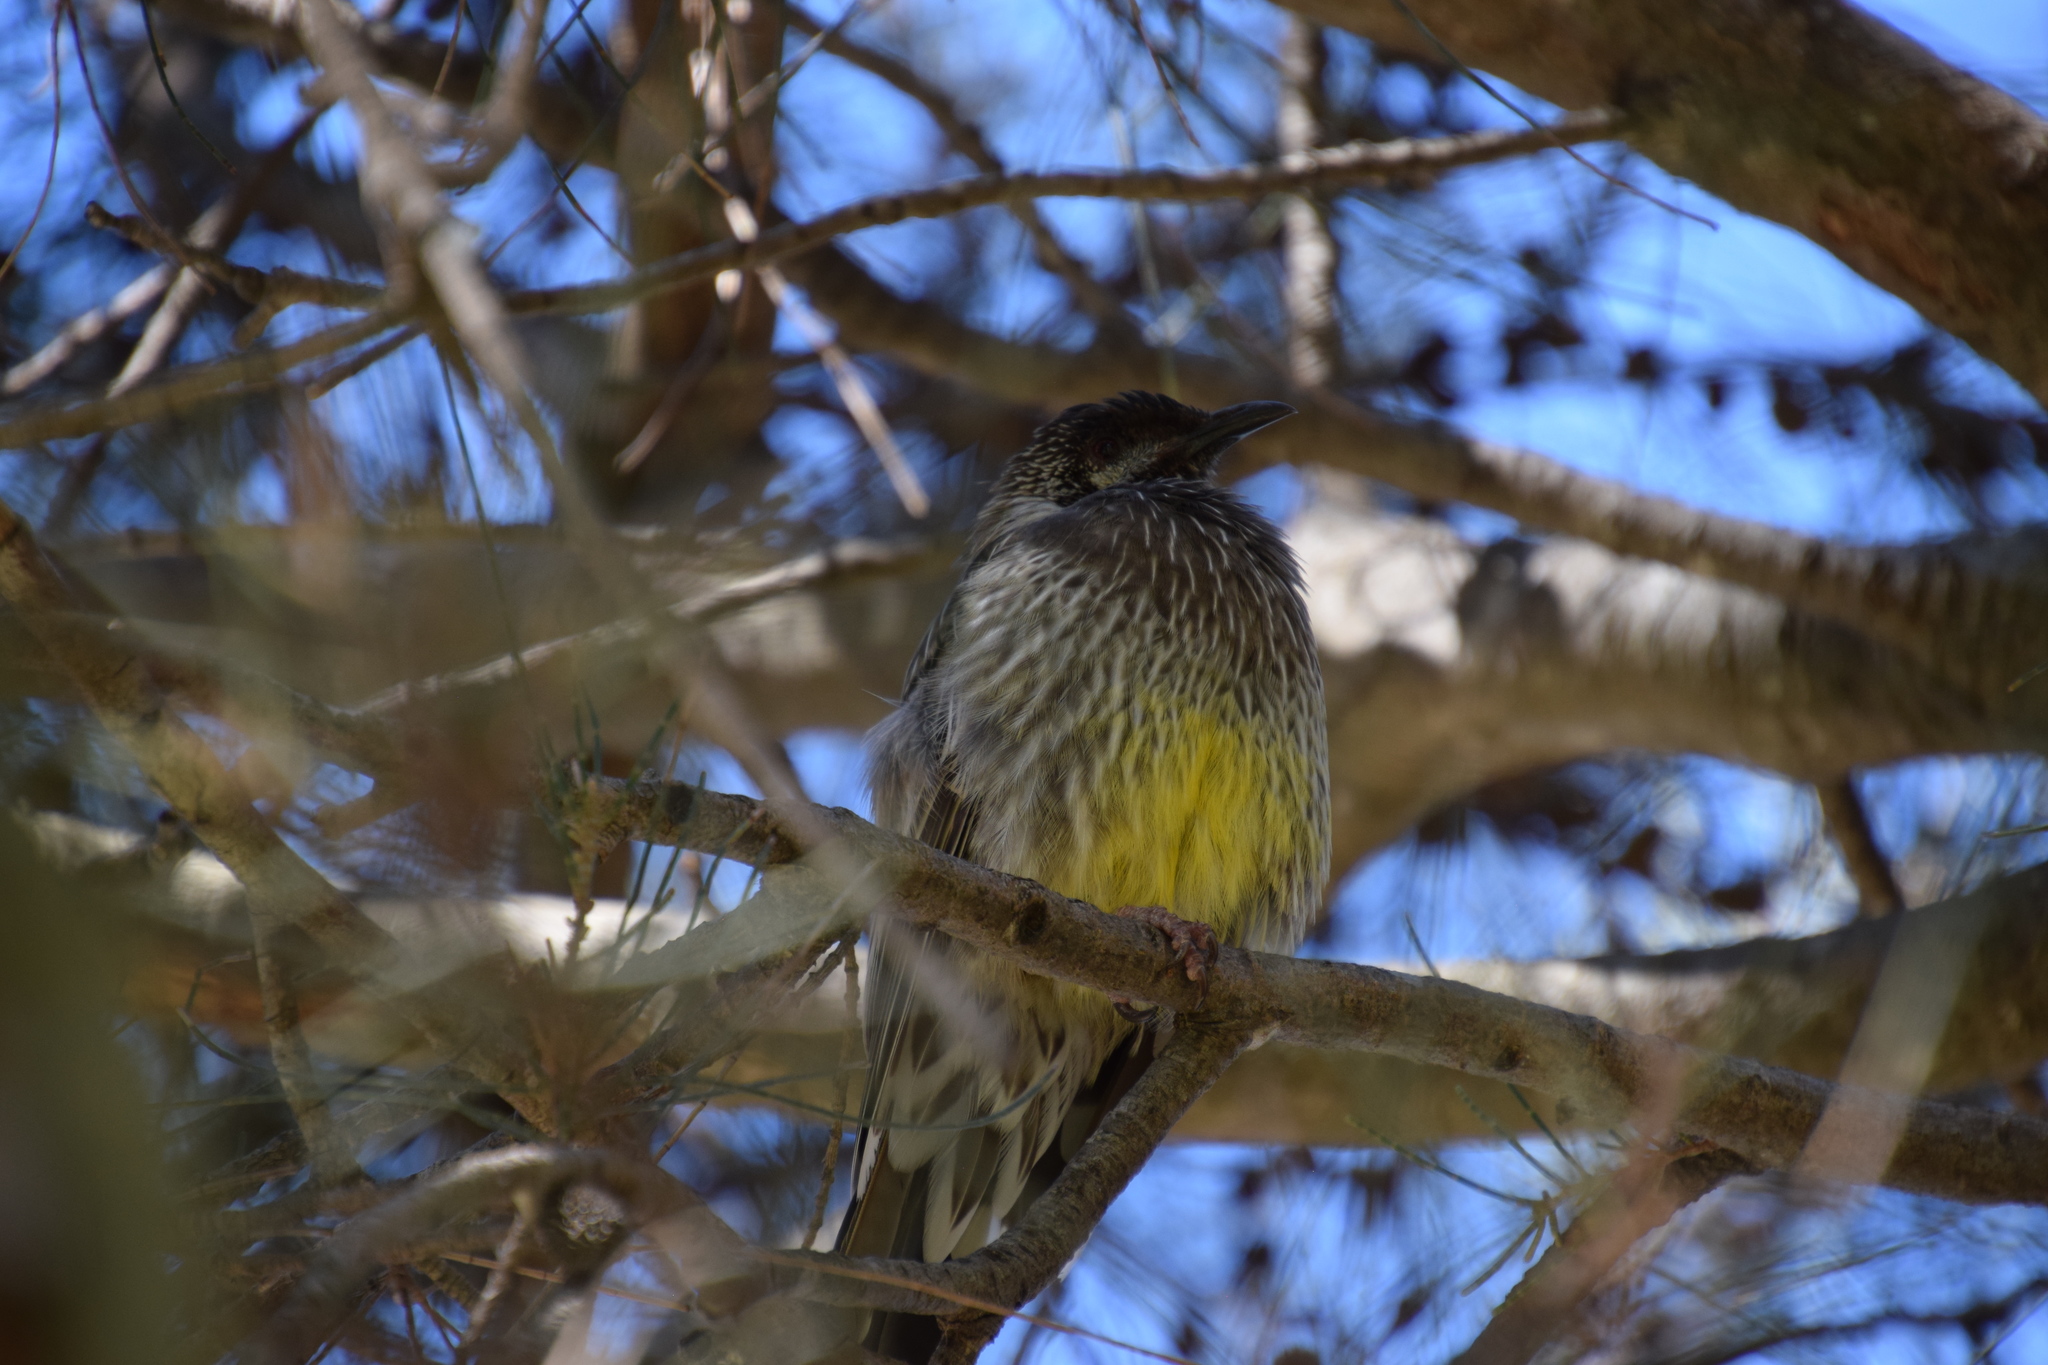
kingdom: Animalia
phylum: Chordata
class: Aves
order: Passeriformes
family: Meliphagidae
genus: Anthochaera
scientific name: Anthochaera carunculata
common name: Red wattlebird
